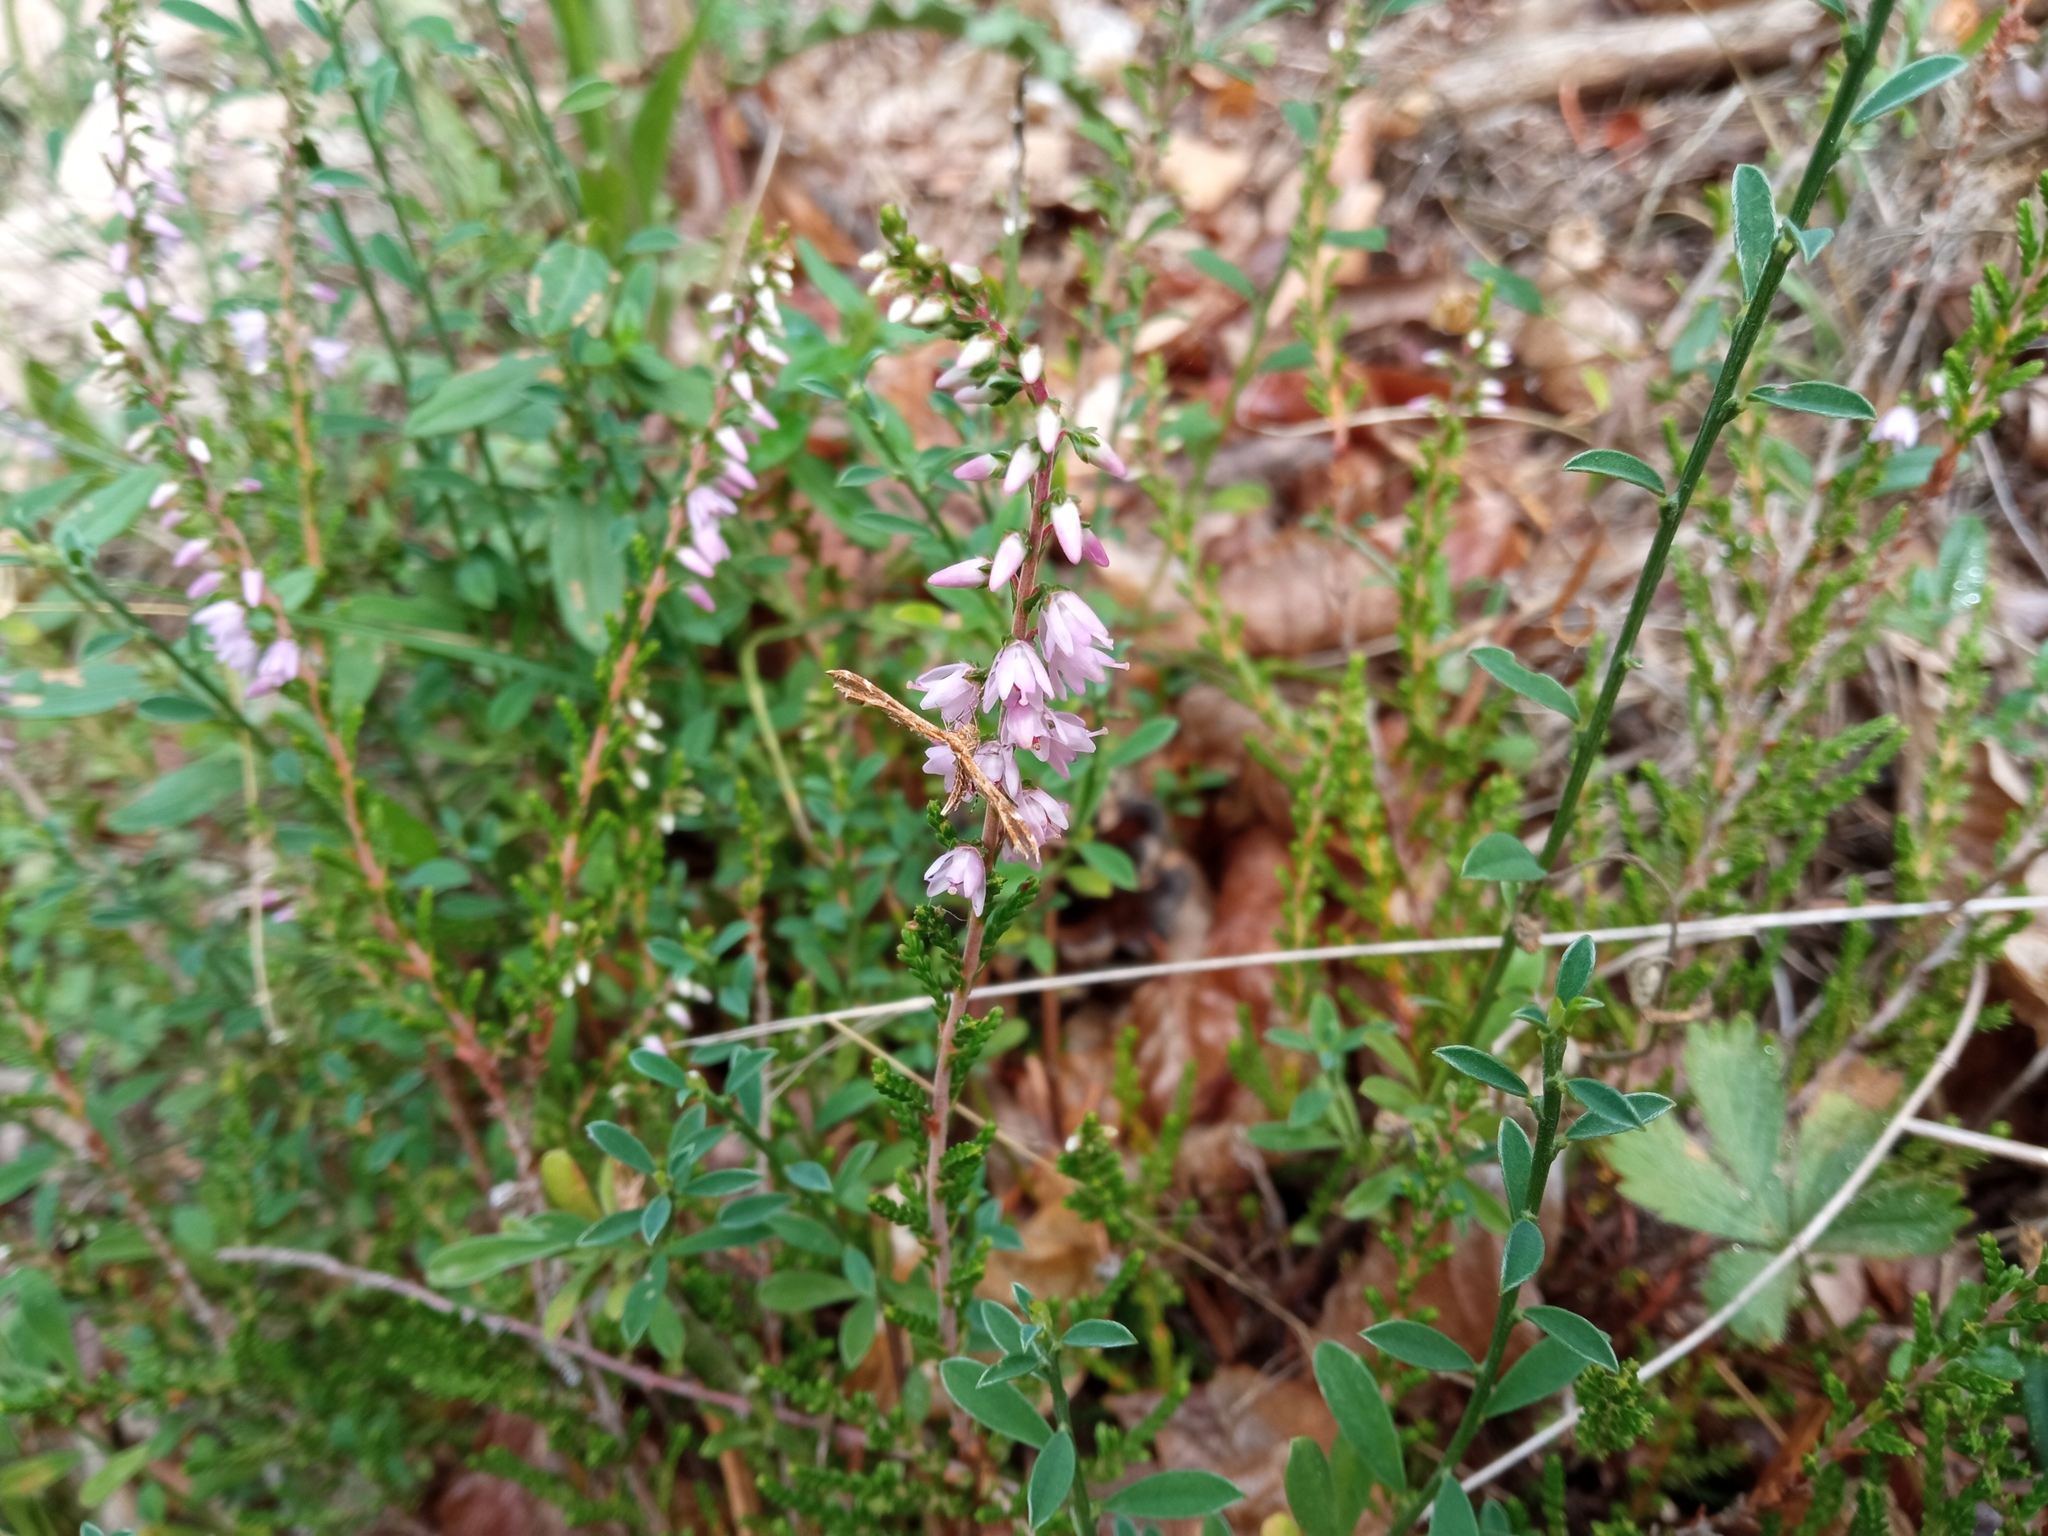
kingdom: Plantae
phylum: Tracheophyta
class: Magnoliopsida
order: Ericales
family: Ericaceae
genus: Calluna
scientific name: Calluna vulgaris
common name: Heather
